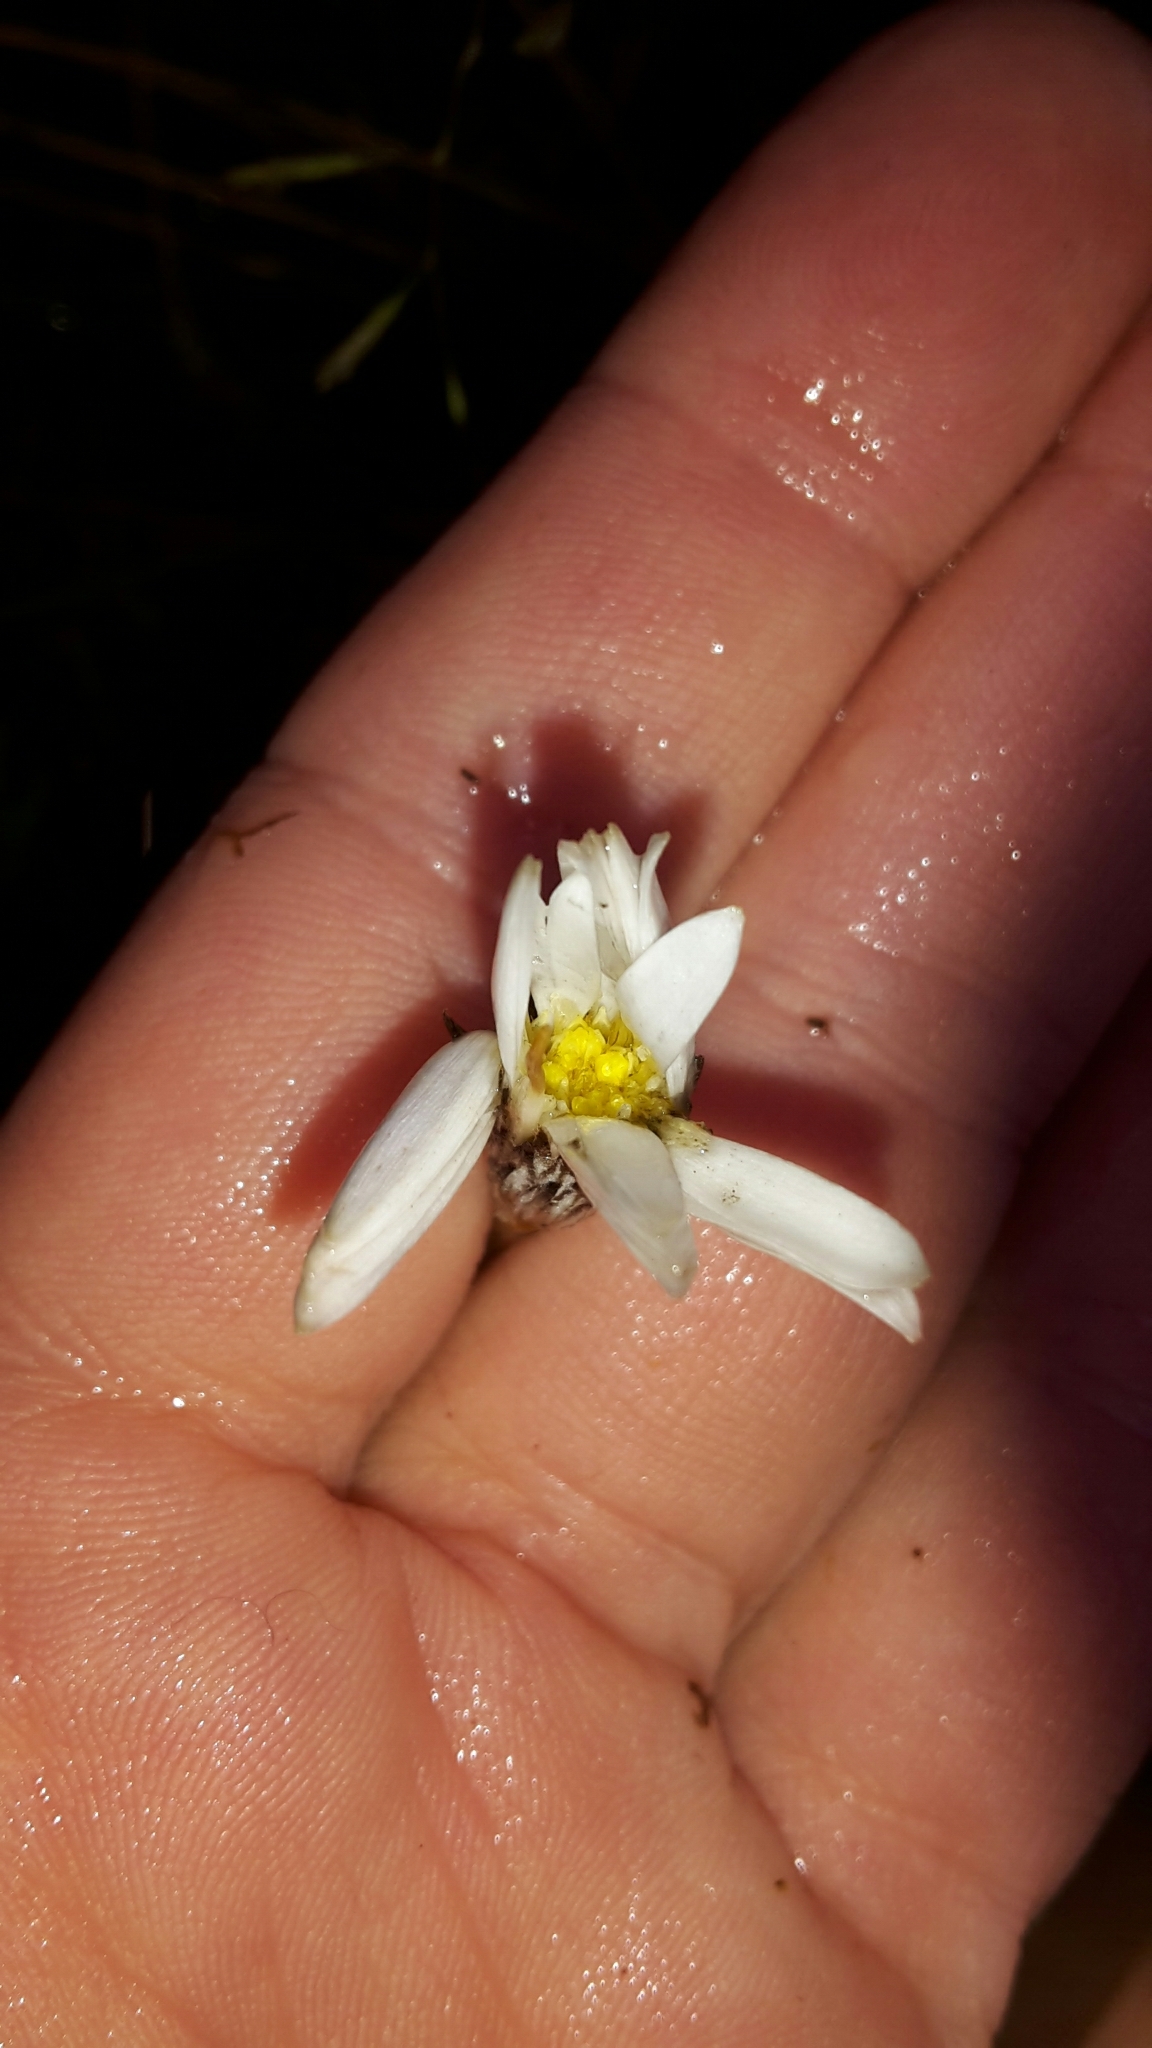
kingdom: Plantae
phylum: Tracheophyta
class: Magnoliopsida
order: Asterales
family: Asteraceae
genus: Celmisia
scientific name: Celmisia gracilenta
